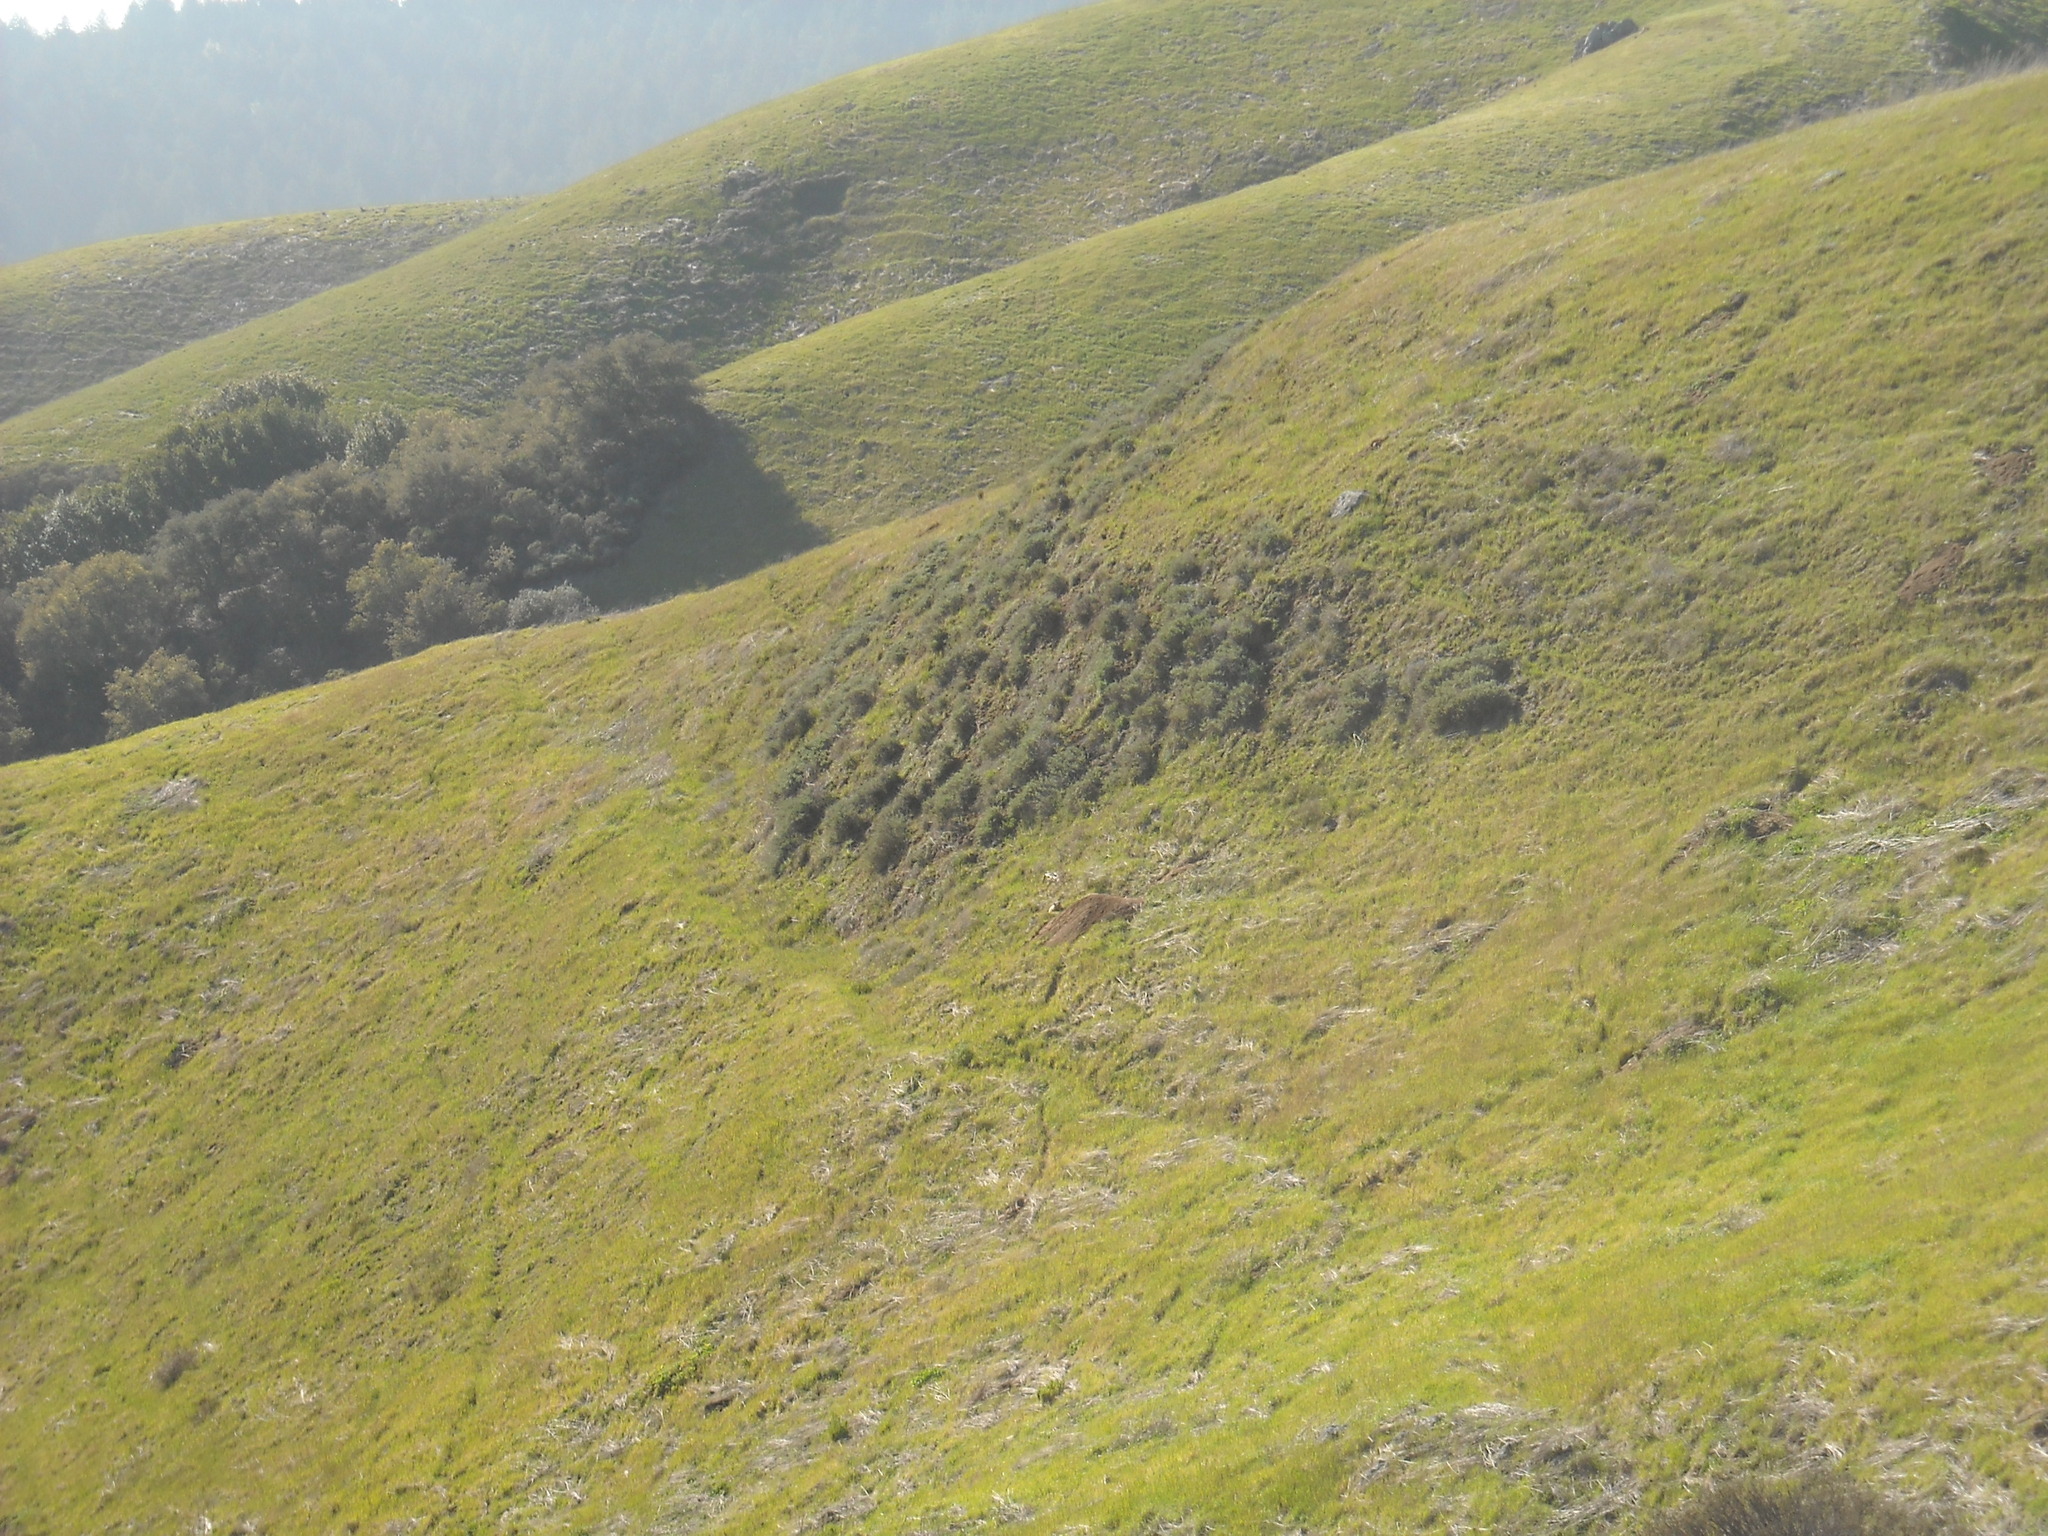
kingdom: Animalia
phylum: Chordata
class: Mammalia
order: Carnivora
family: Mustelidae
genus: Taxidea
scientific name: Taxidea taxus
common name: American badger
